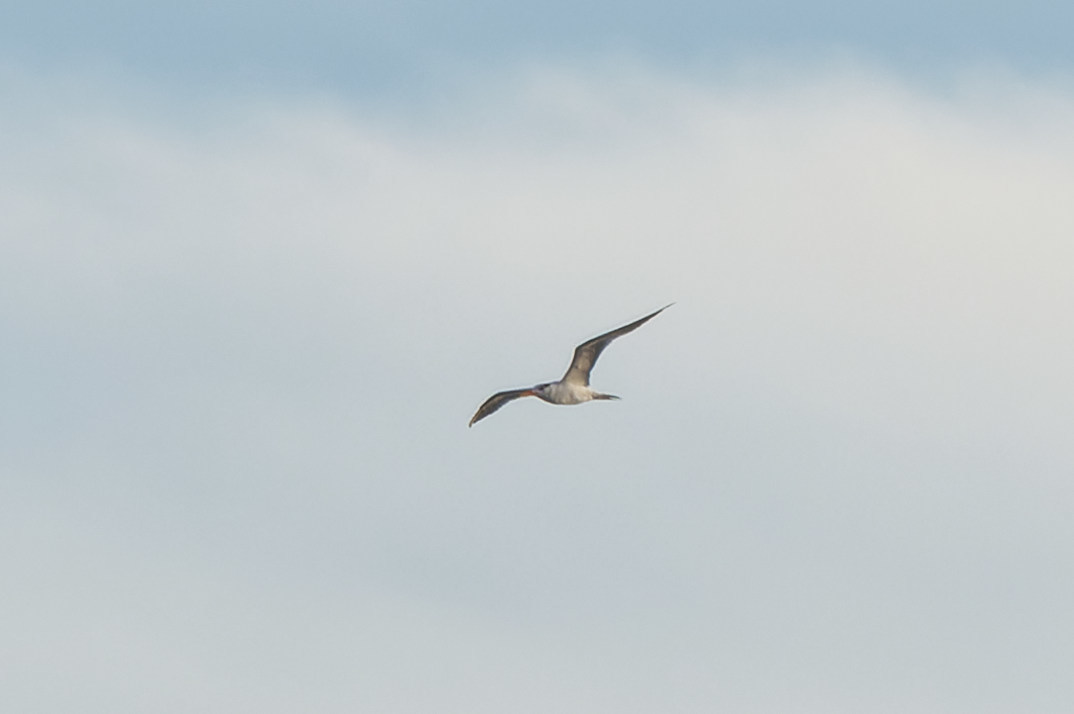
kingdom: Animalia
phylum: Chordata
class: Aves
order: Charadriiformes
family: Laridae
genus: Thalasseus
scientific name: Thalasseus maximus
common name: Royal tern
